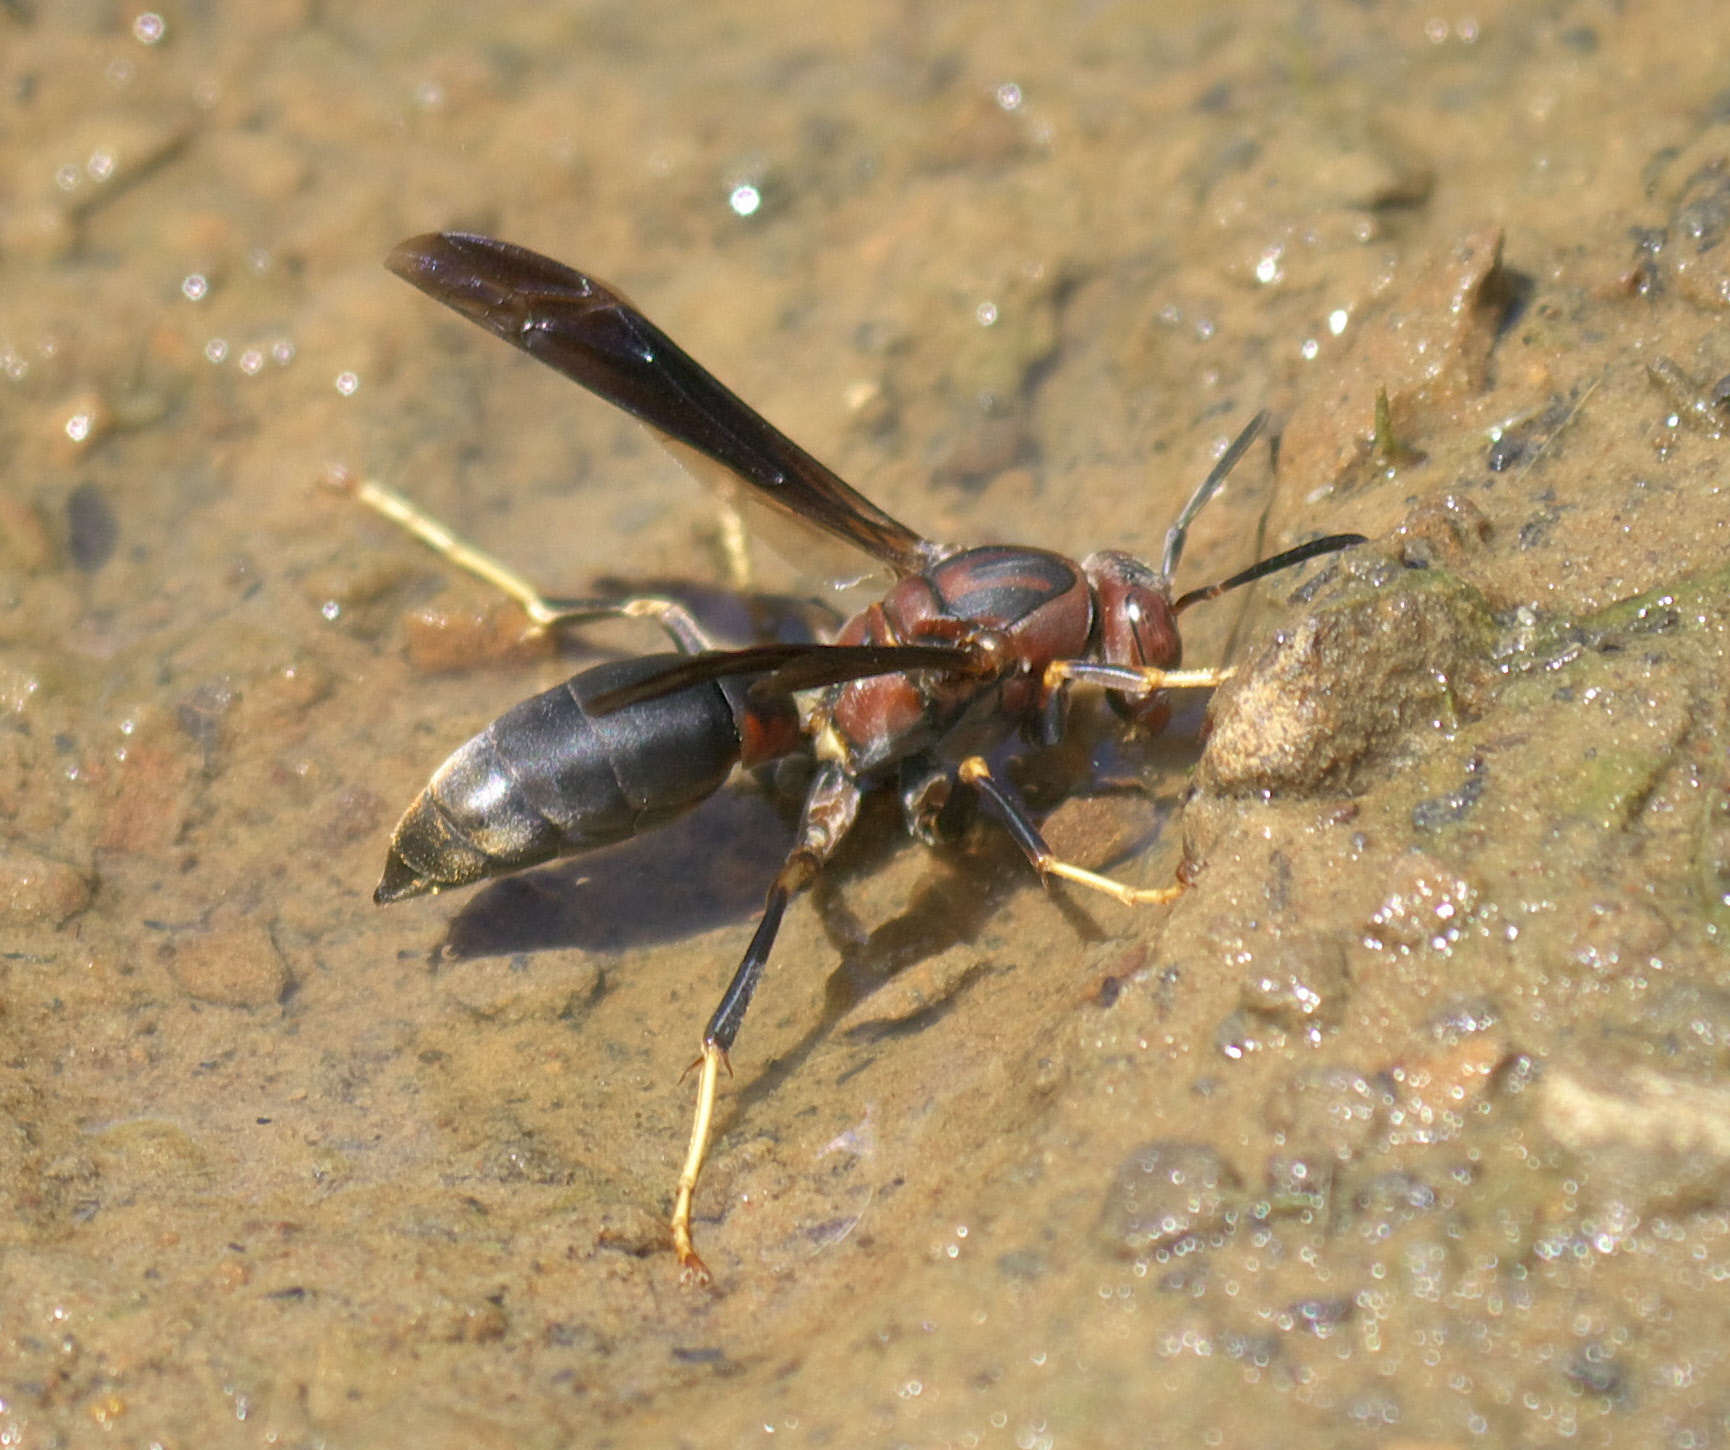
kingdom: Animalia
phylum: Arthropoda
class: Insecta
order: Hymenoptera
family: Eumenidae
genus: Polistes
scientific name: Polistes metricus
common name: Metric paper wasp
